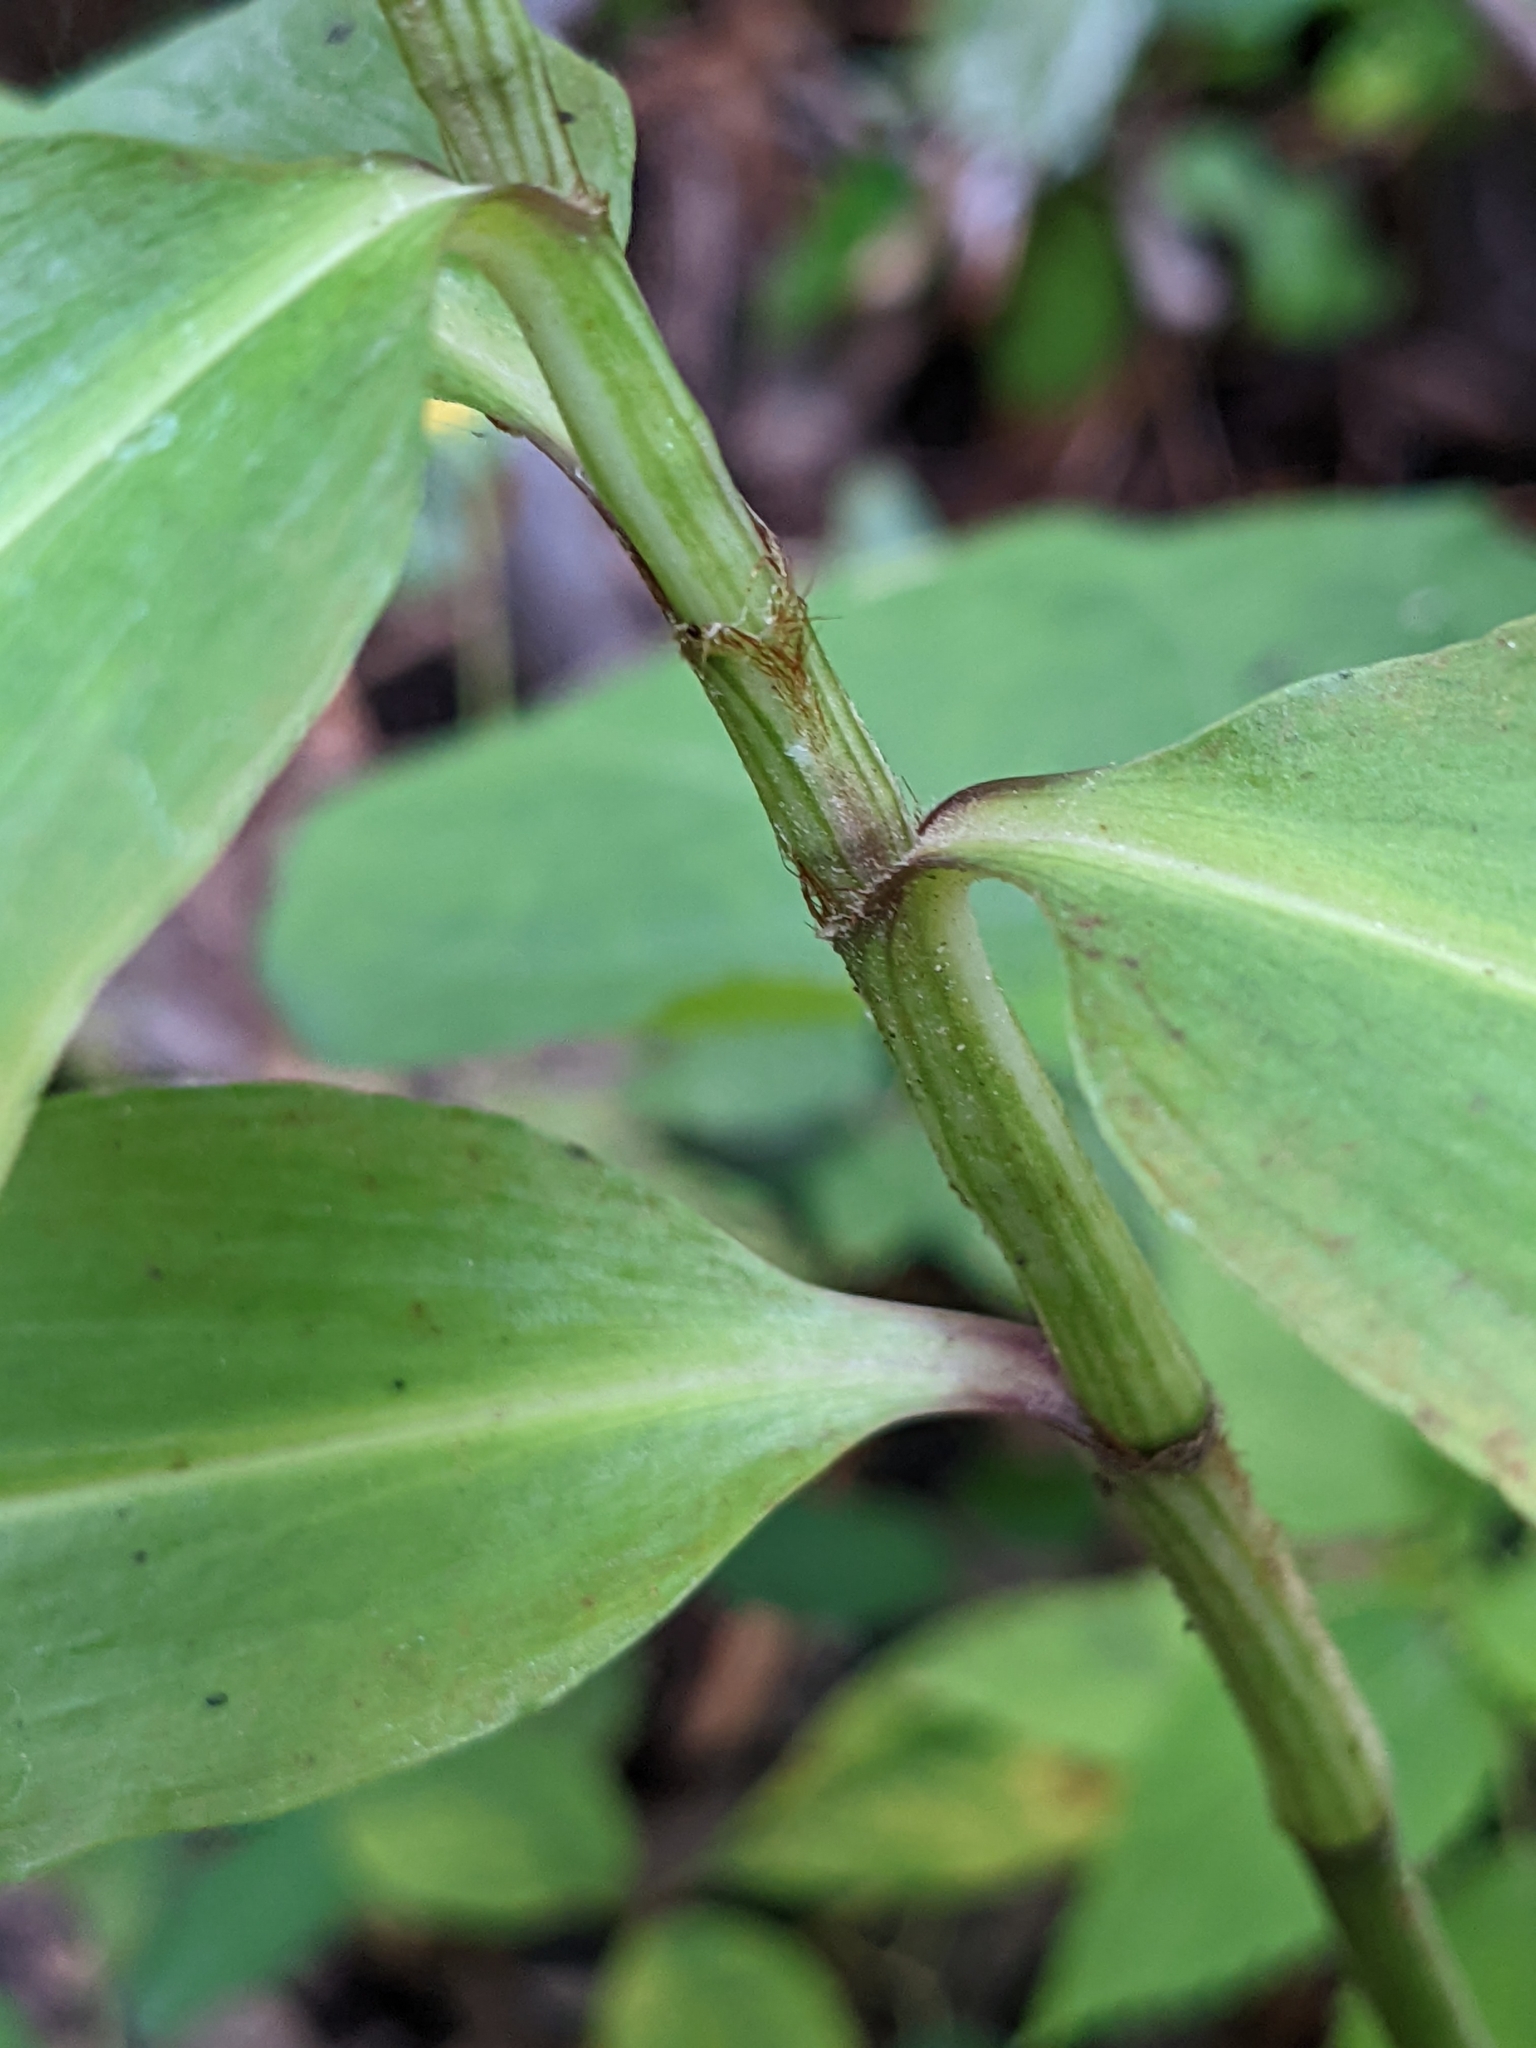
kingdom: Plantae
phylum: Tracheophyta
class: Liliopsida
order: Commelinales
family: Commelinaceae
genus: Commelina
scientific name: Commelina virginica
